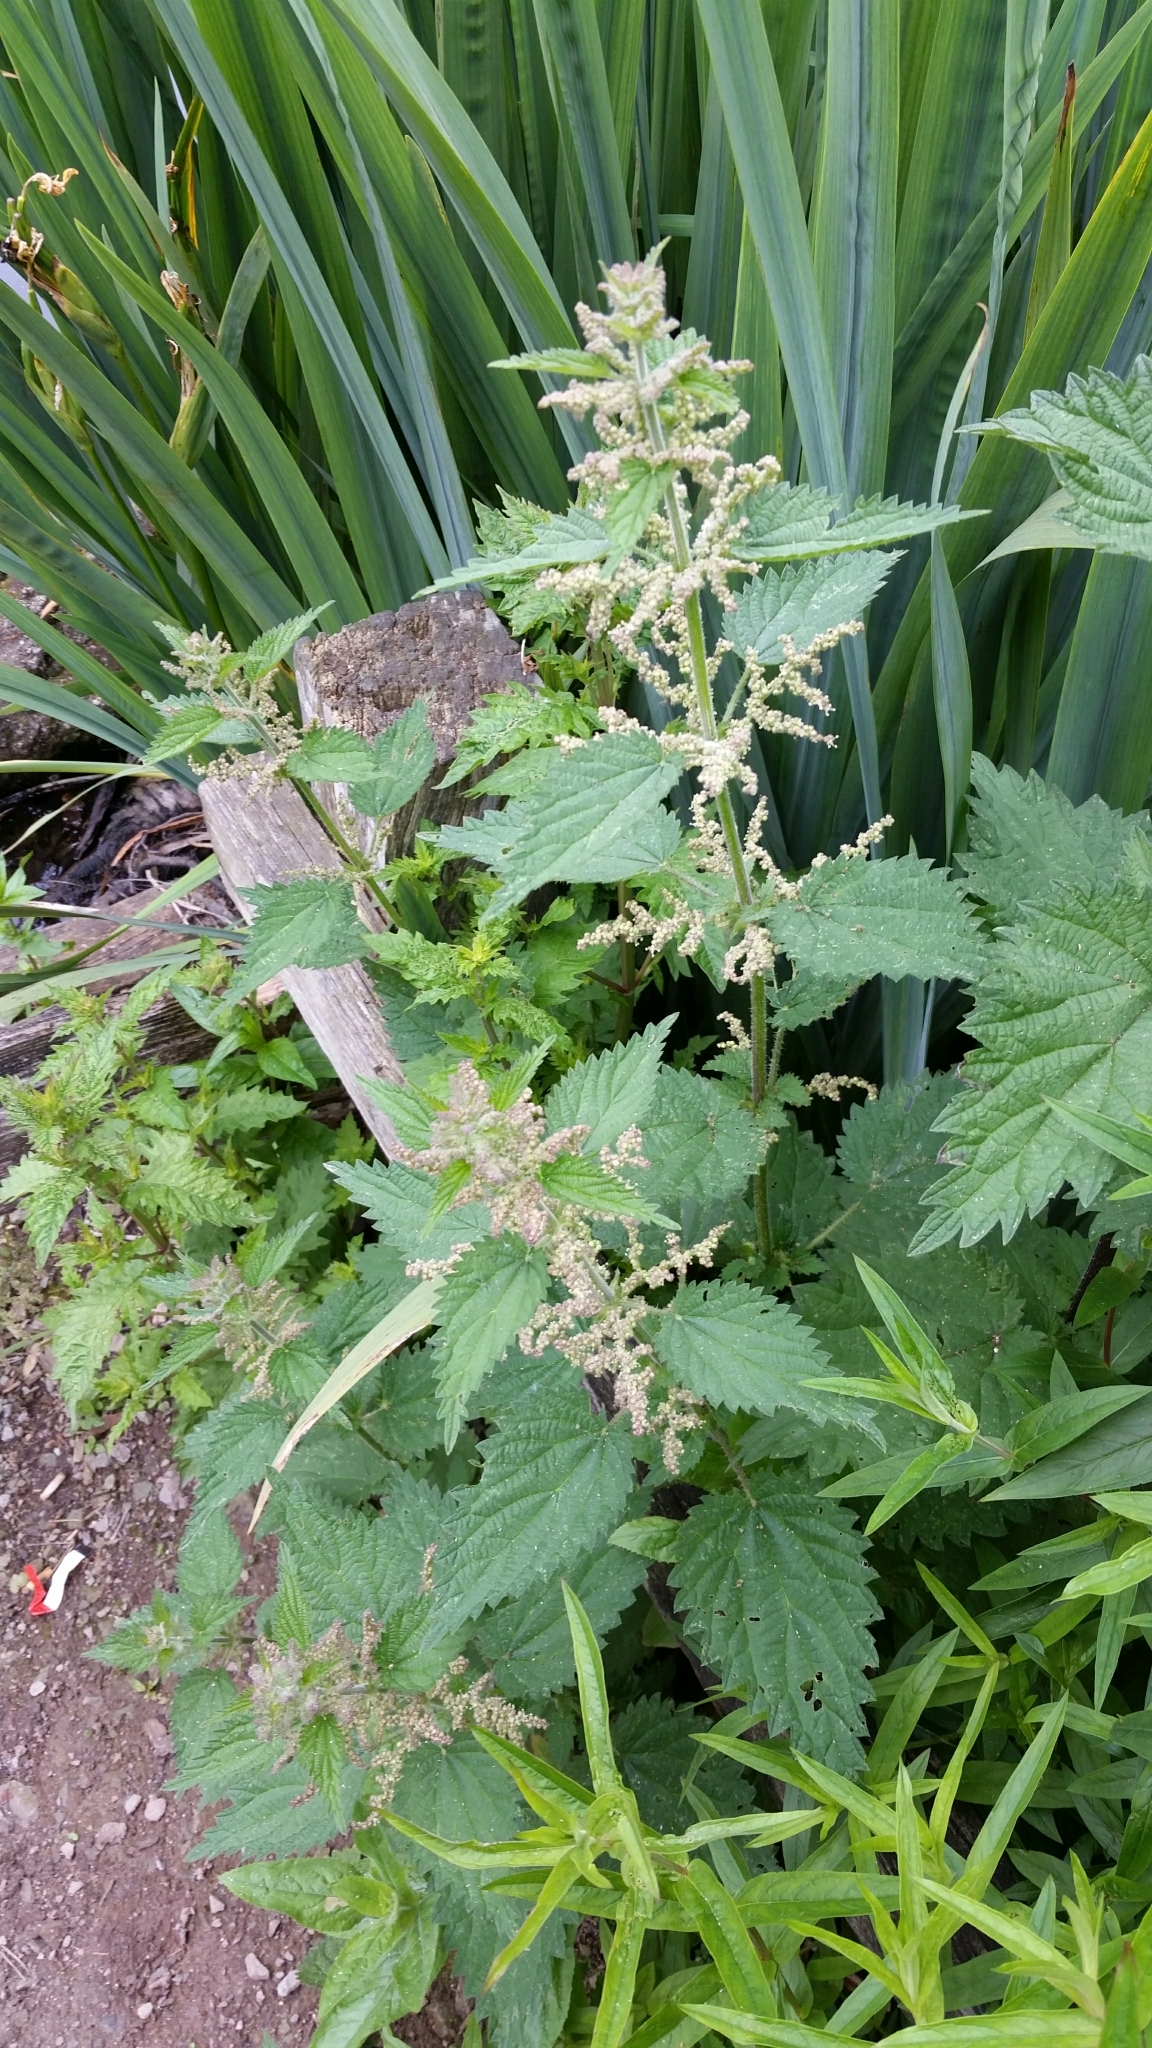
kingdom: Plantae
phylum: Tracheophyta
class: Magnoliopsida
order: Rosales
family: Urticaceae
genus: Urtica
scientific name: Urtica dioica
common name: Common nettle
